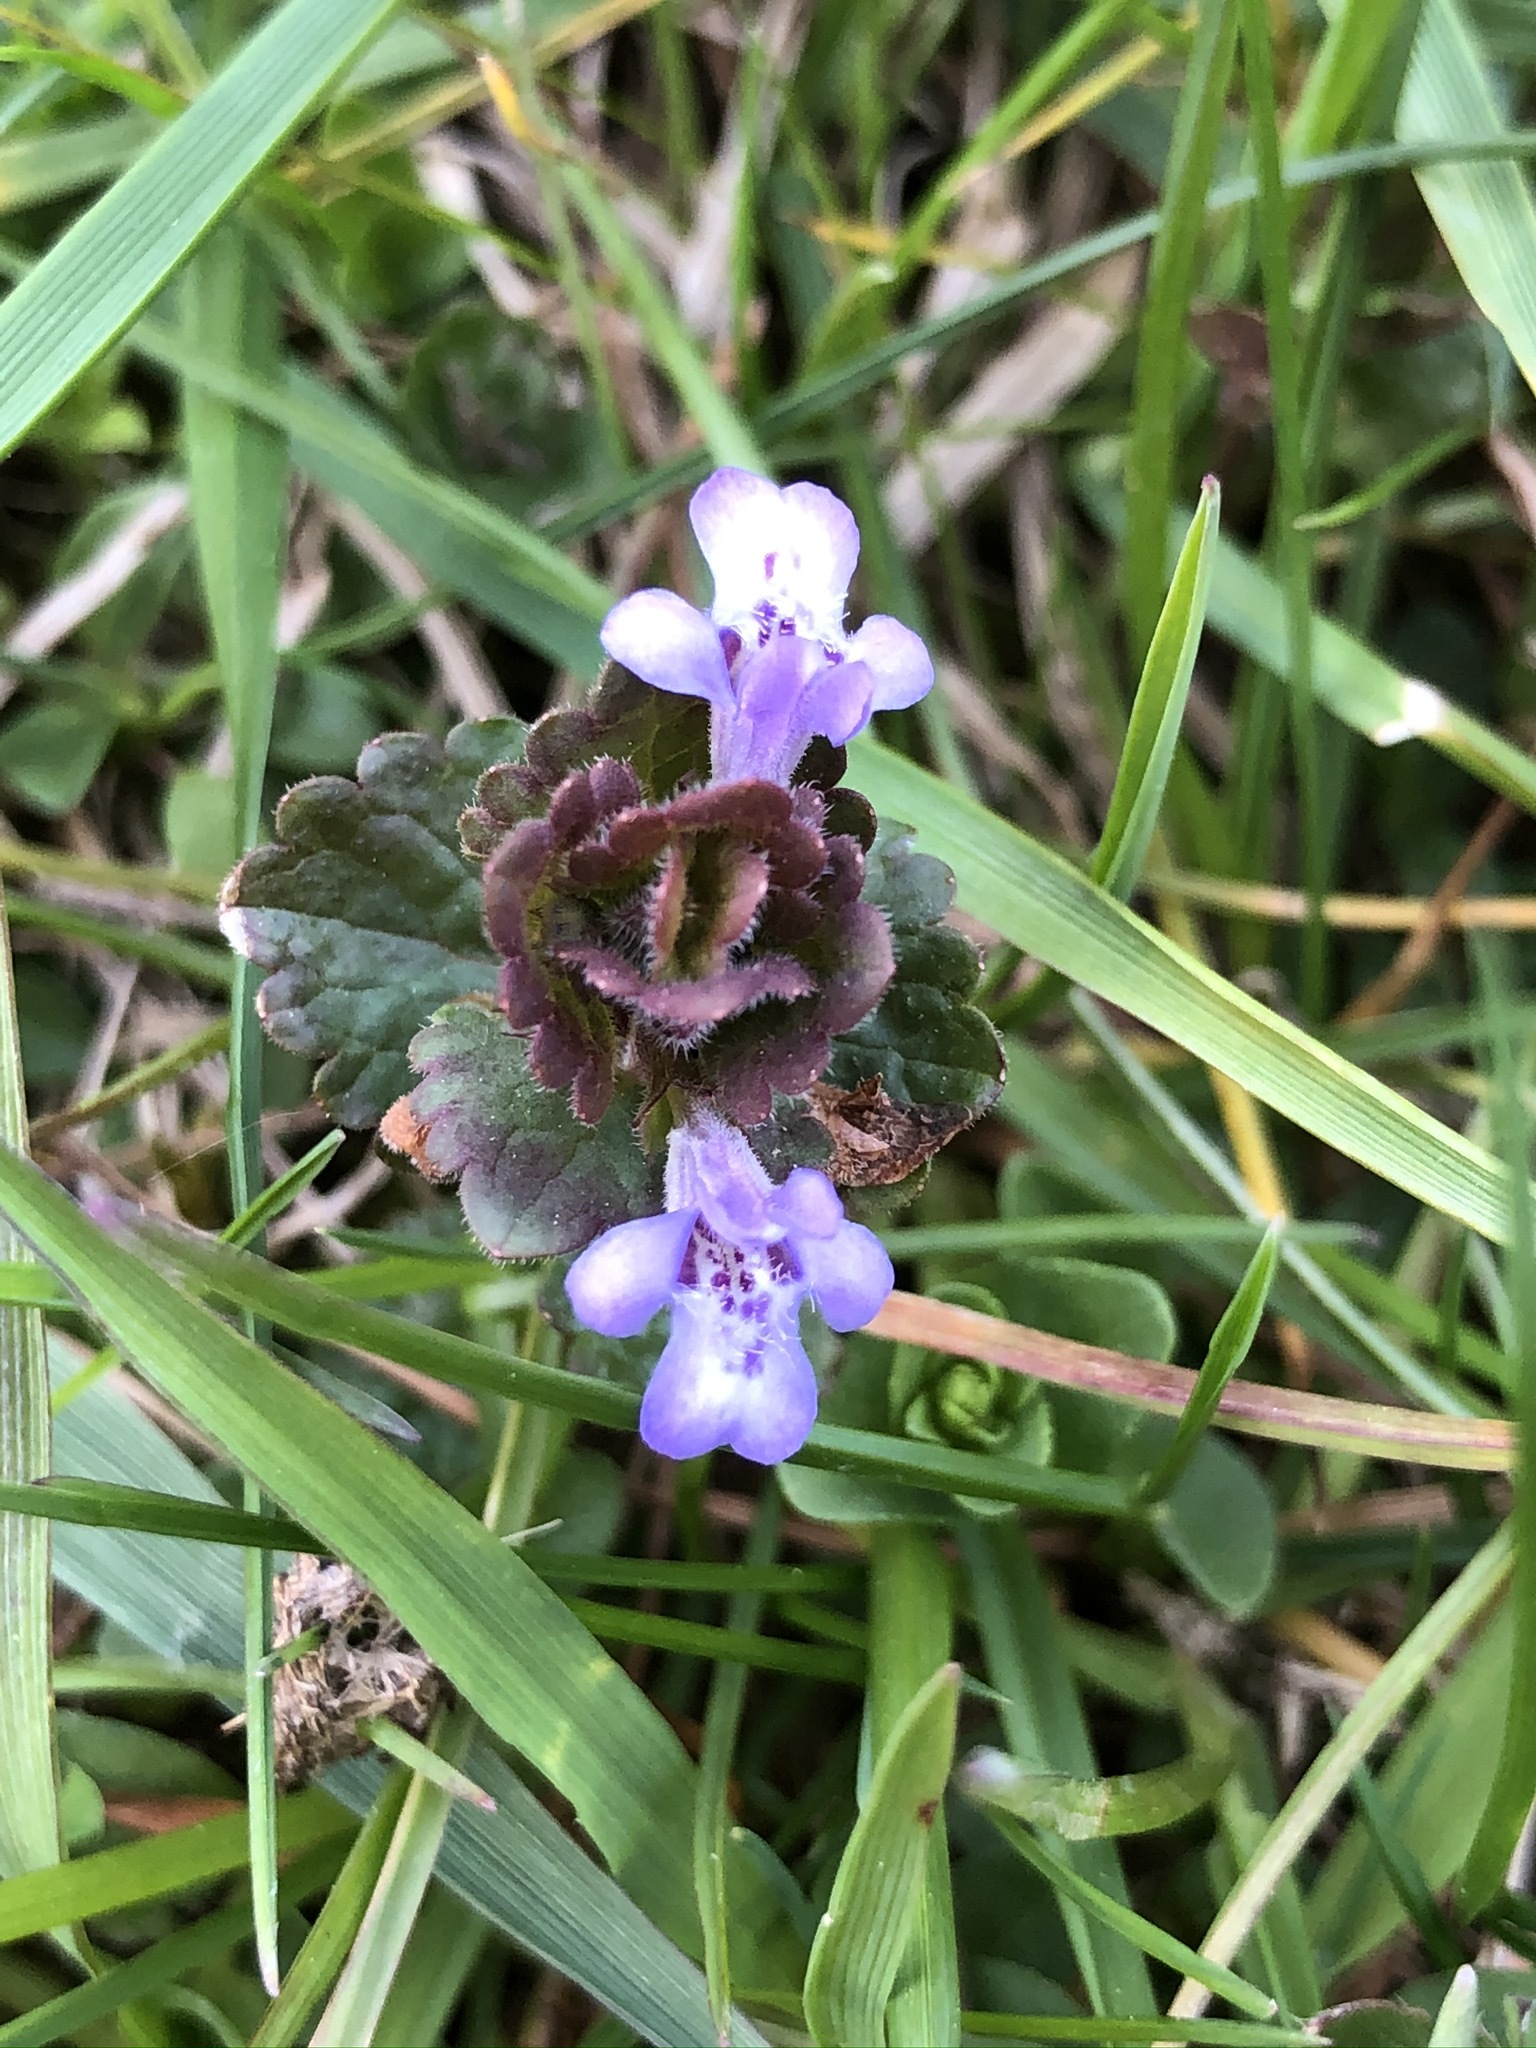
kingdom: Plantae
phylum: Tracheophyta
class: Magnoliopsida
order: Lamiales
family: Lamiaceae
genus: Glechoma
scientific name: Glechoma hederacea
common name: Ground ivy
